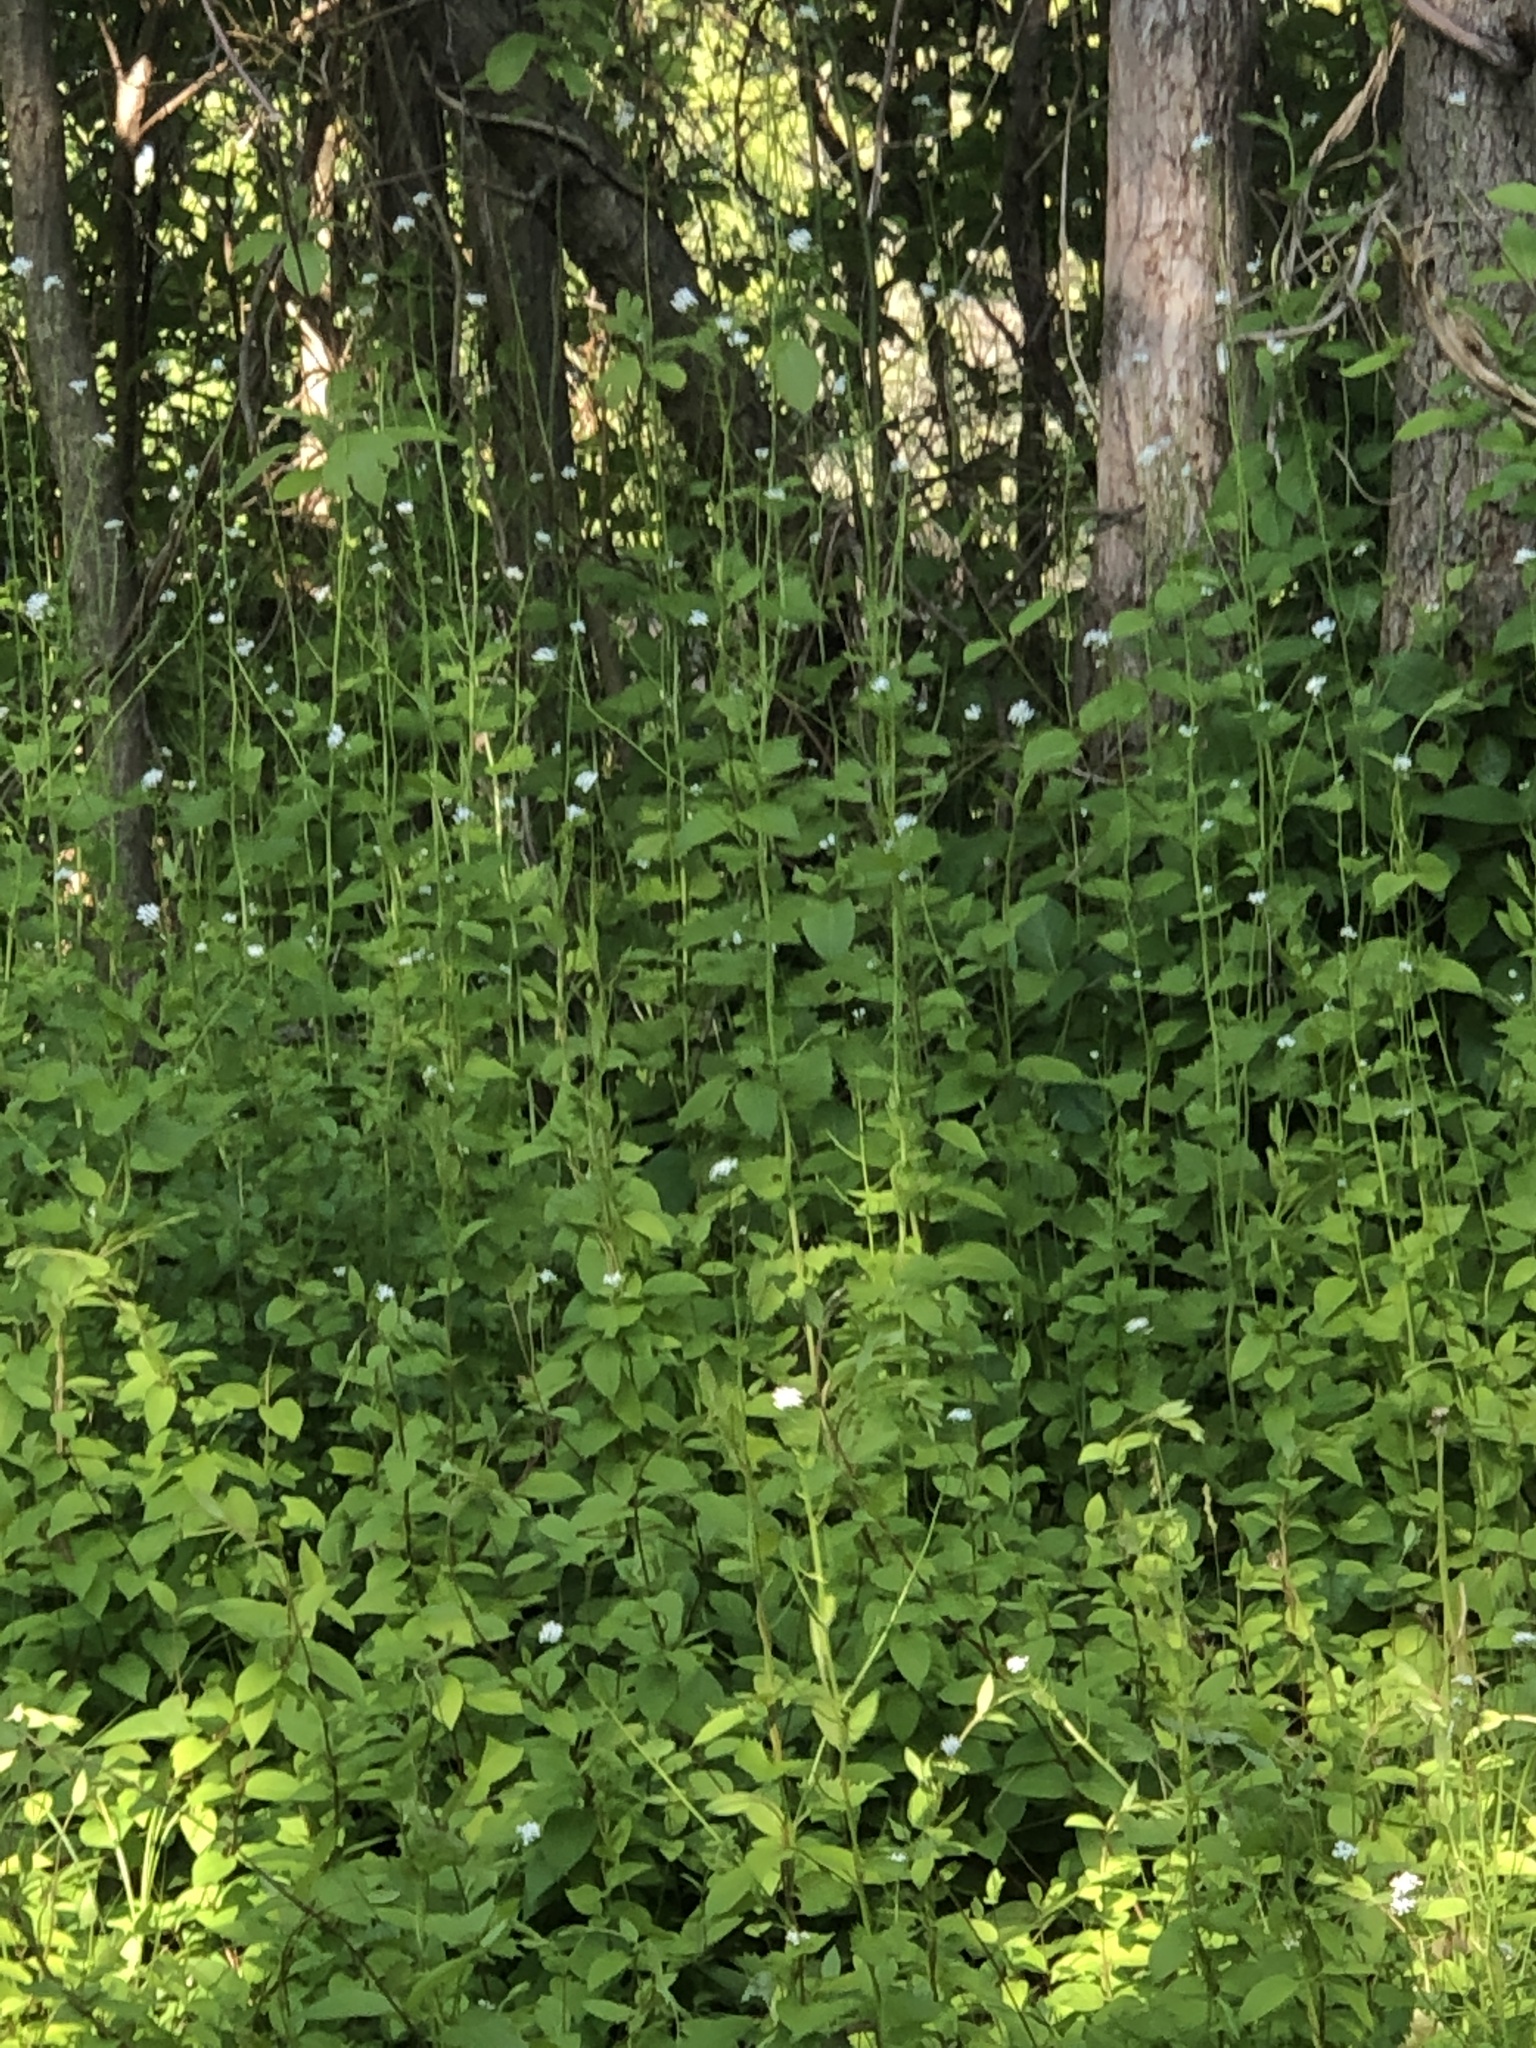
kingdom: Plantae
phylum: Tracheophyta
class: Magnoliopsida
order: Brassicales
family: Brassicaceae
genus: Alliaria
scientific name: Alliaria petiolata
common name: Garlic mustard
